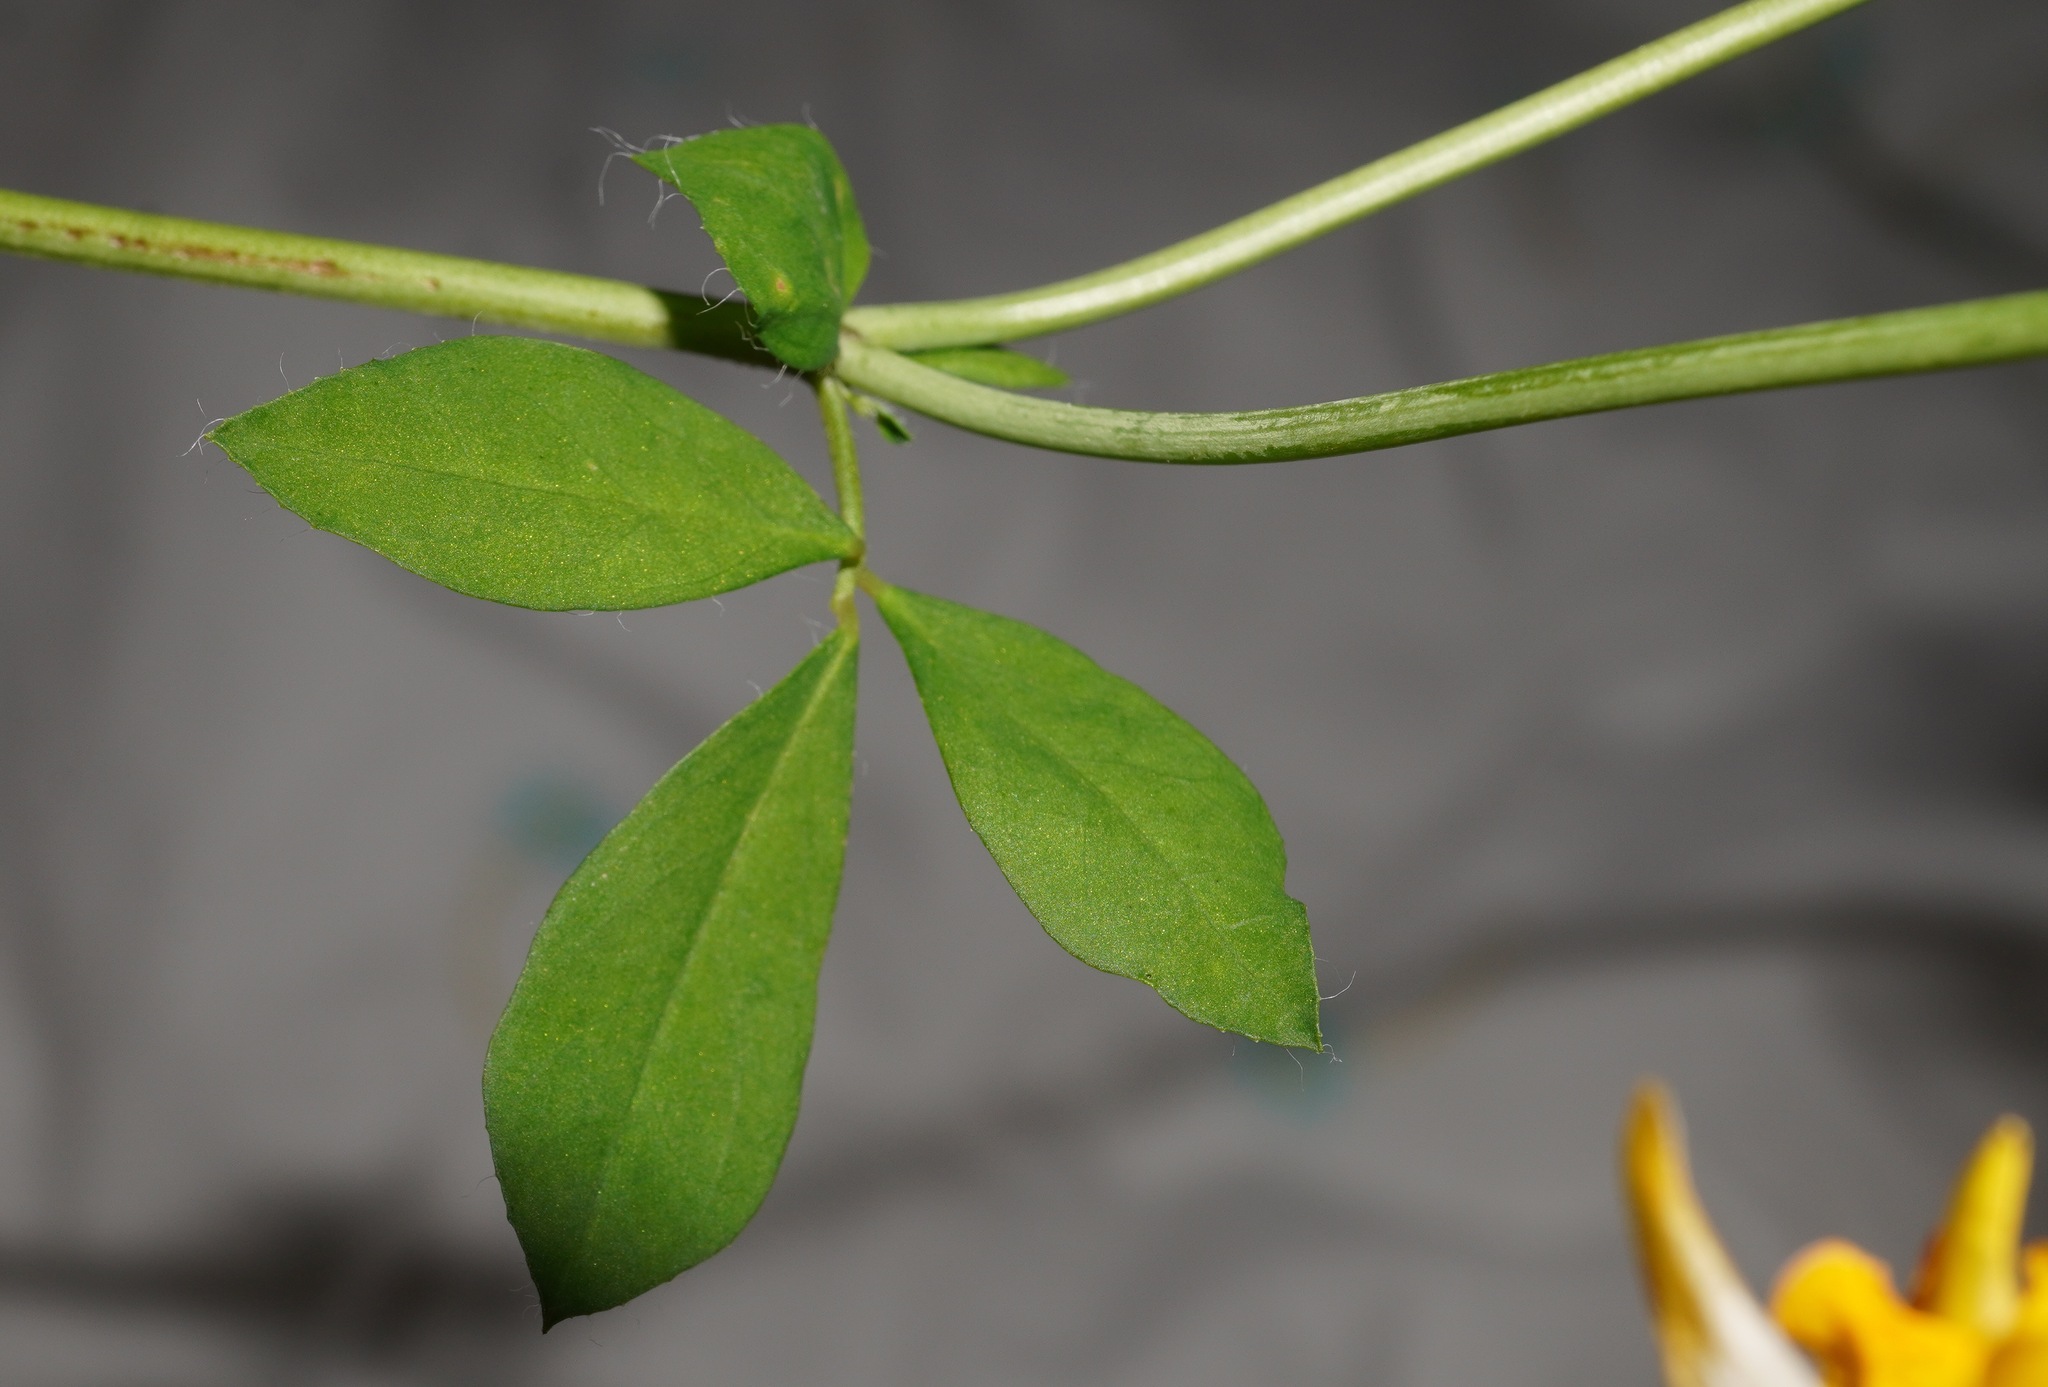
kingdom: Plantae
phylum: Tracheophyta
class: Magnoliopsida
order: Fabales
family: Fabaceae
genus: Lotus
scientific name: Lotus pedunculatus
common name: Greater birdsfoot-trefoil
